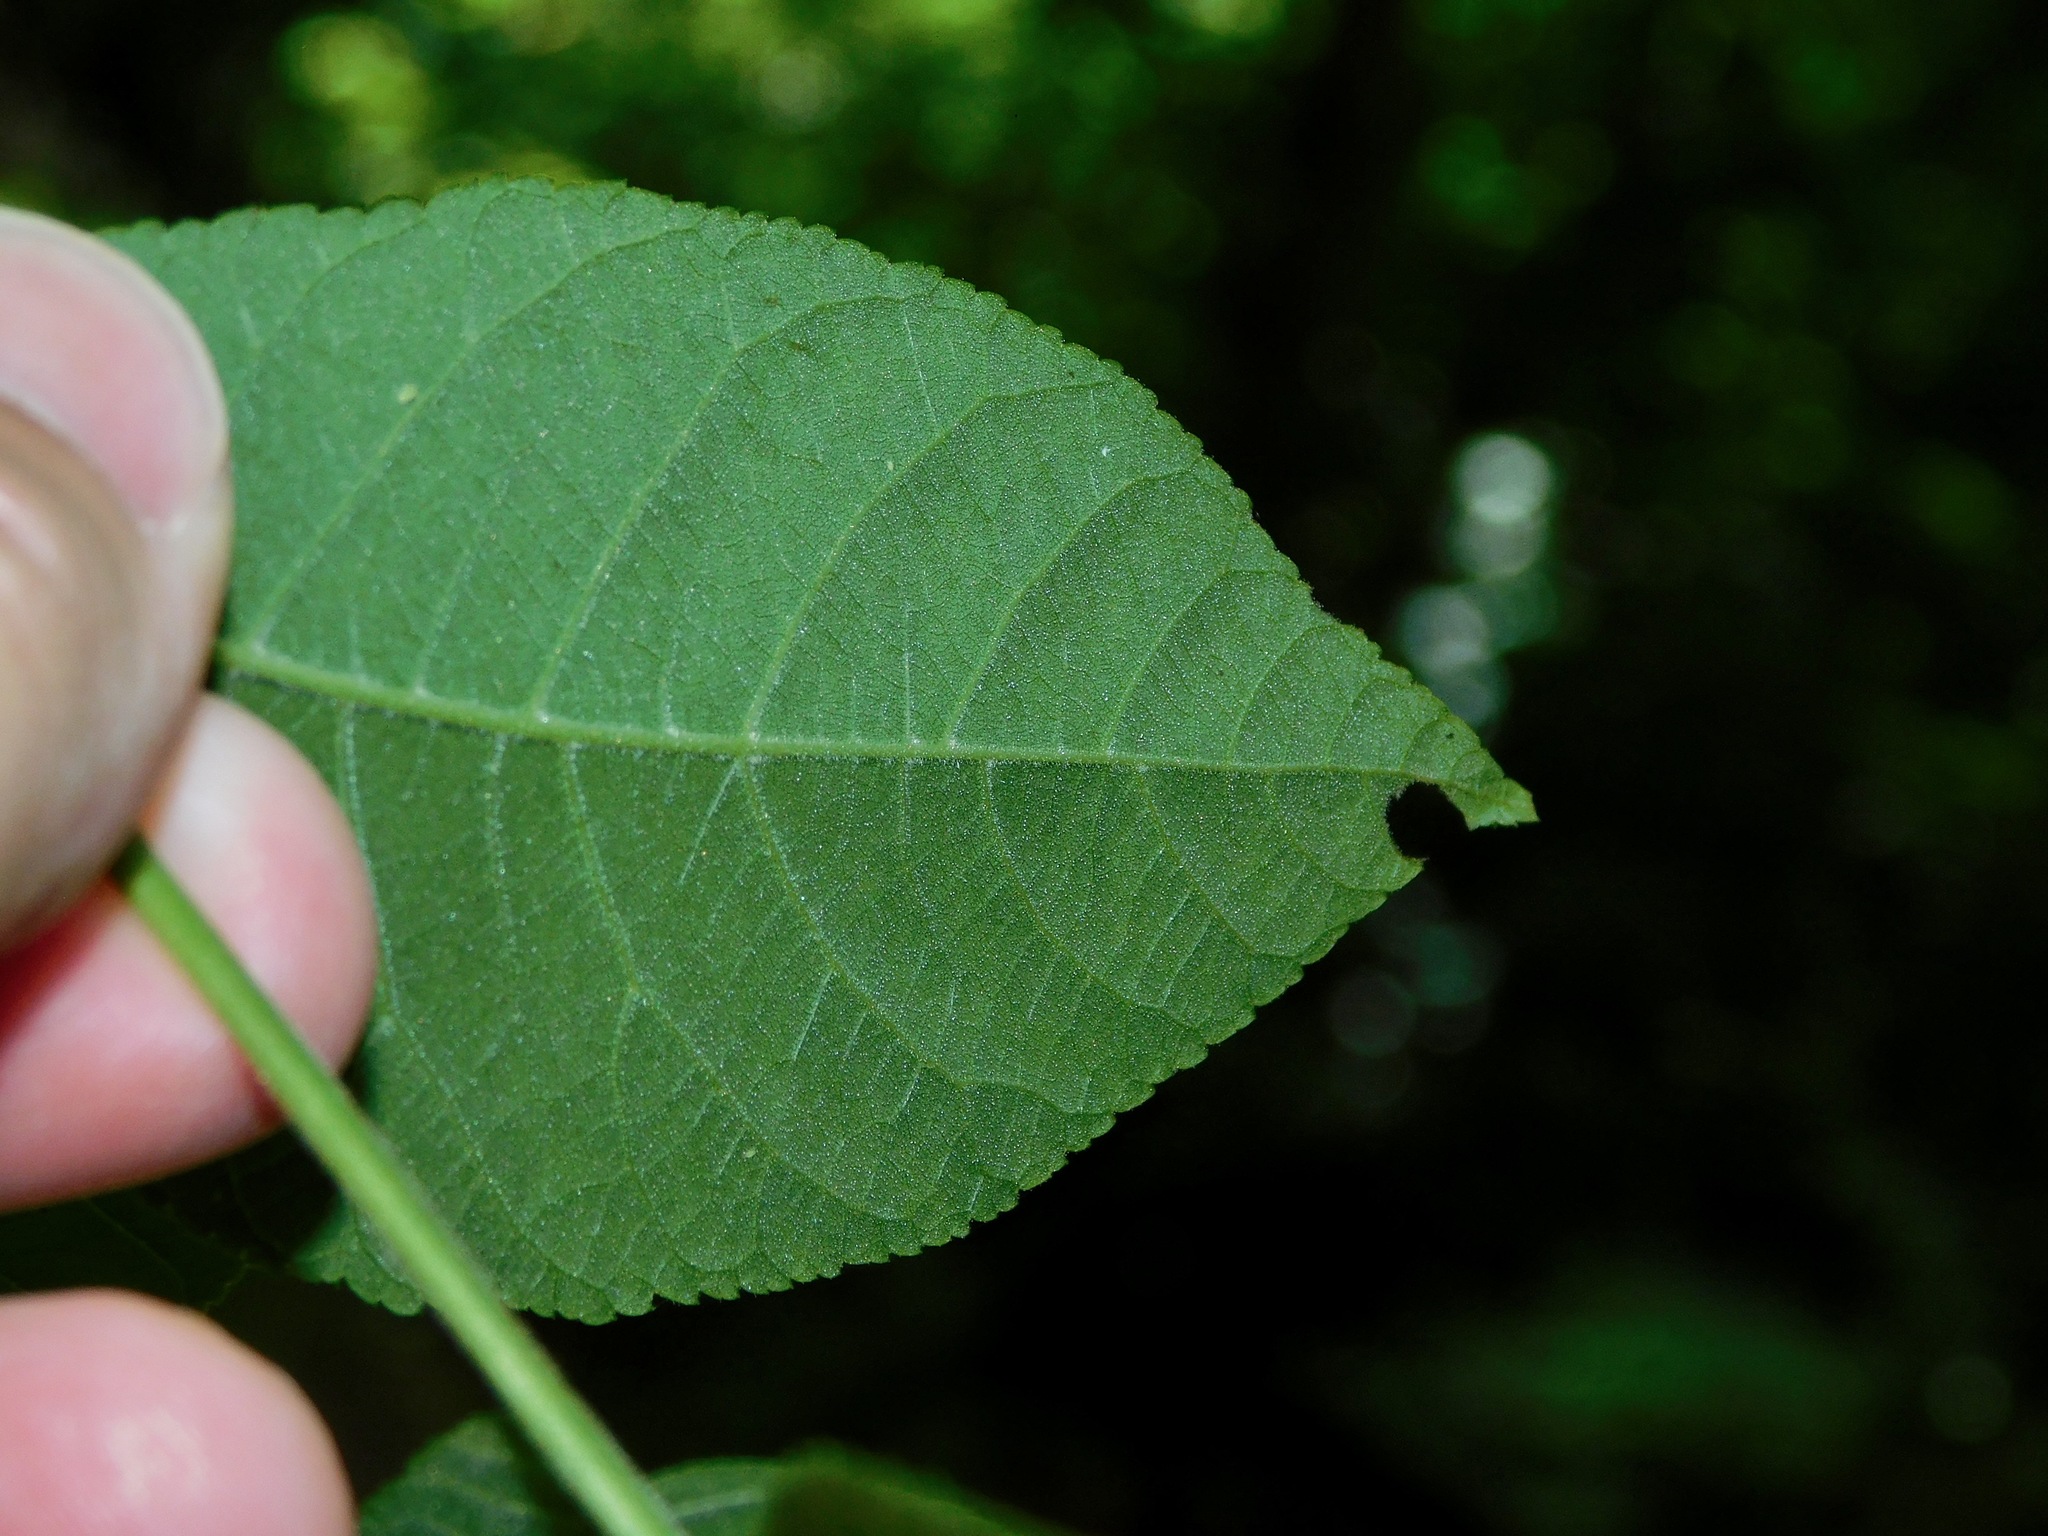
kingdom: Plantae
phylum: Tracheophyta
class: Magnoliopsida
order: Fagales
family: Juglandaceae
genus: Juglans
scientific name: Juglans cinerea
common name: Butternut
